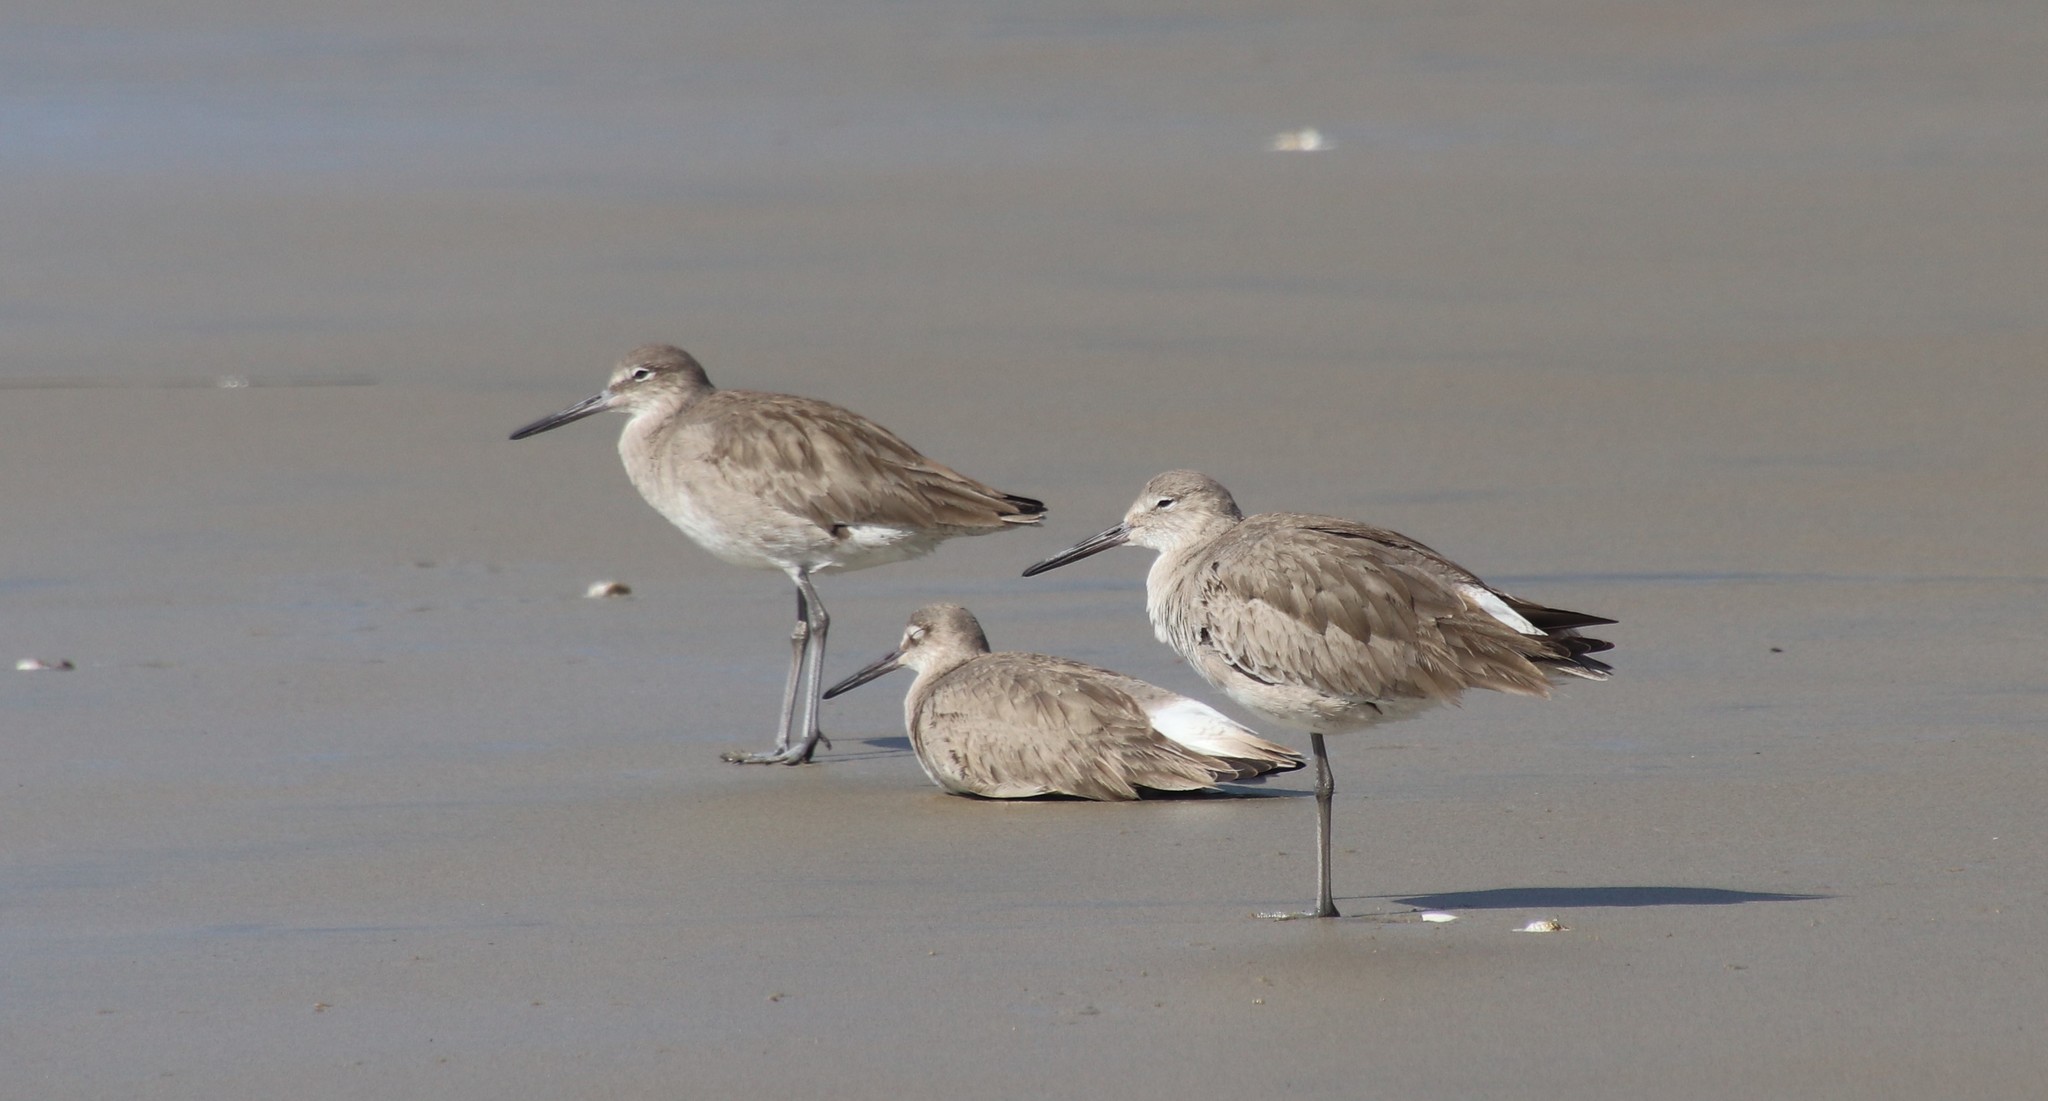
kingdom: Animalia
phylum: Chordata
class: Aves
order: Charadriiformes
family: Scolopacidae
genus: Tringa
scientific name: Tringa semipalmata
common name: Willet
